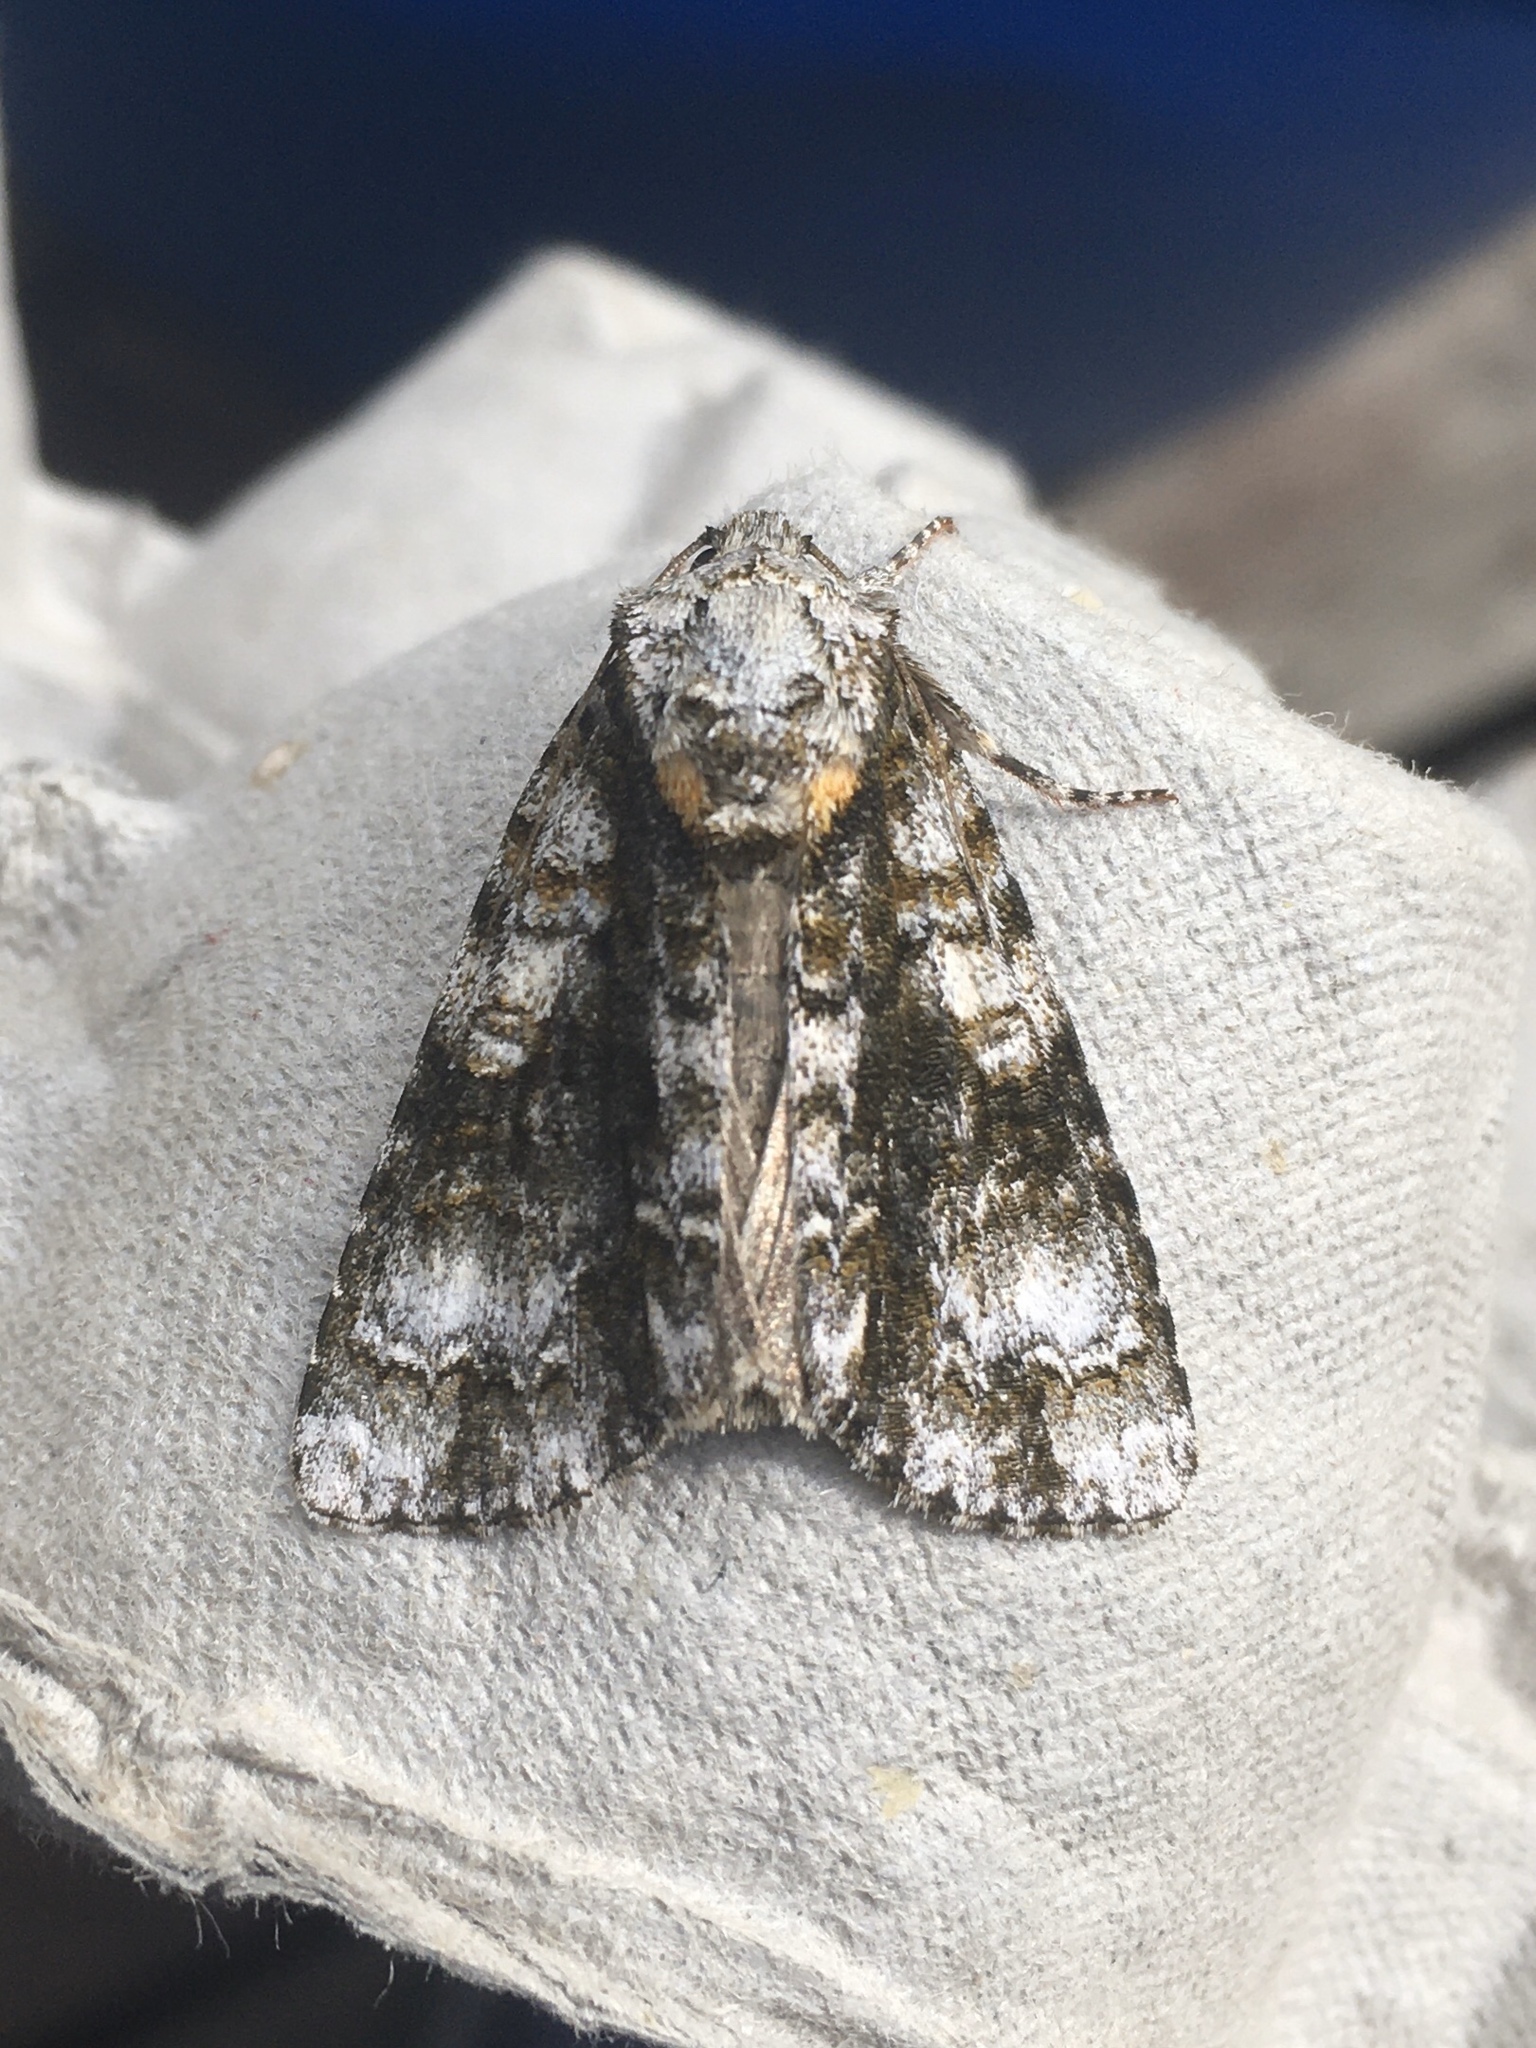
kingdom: Animalia
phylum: Arthropoda
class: Insecta
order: Lepidoptera
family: Noctuidae
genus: Acronicta
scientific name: Acronicta superans
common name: Splendid dagger
